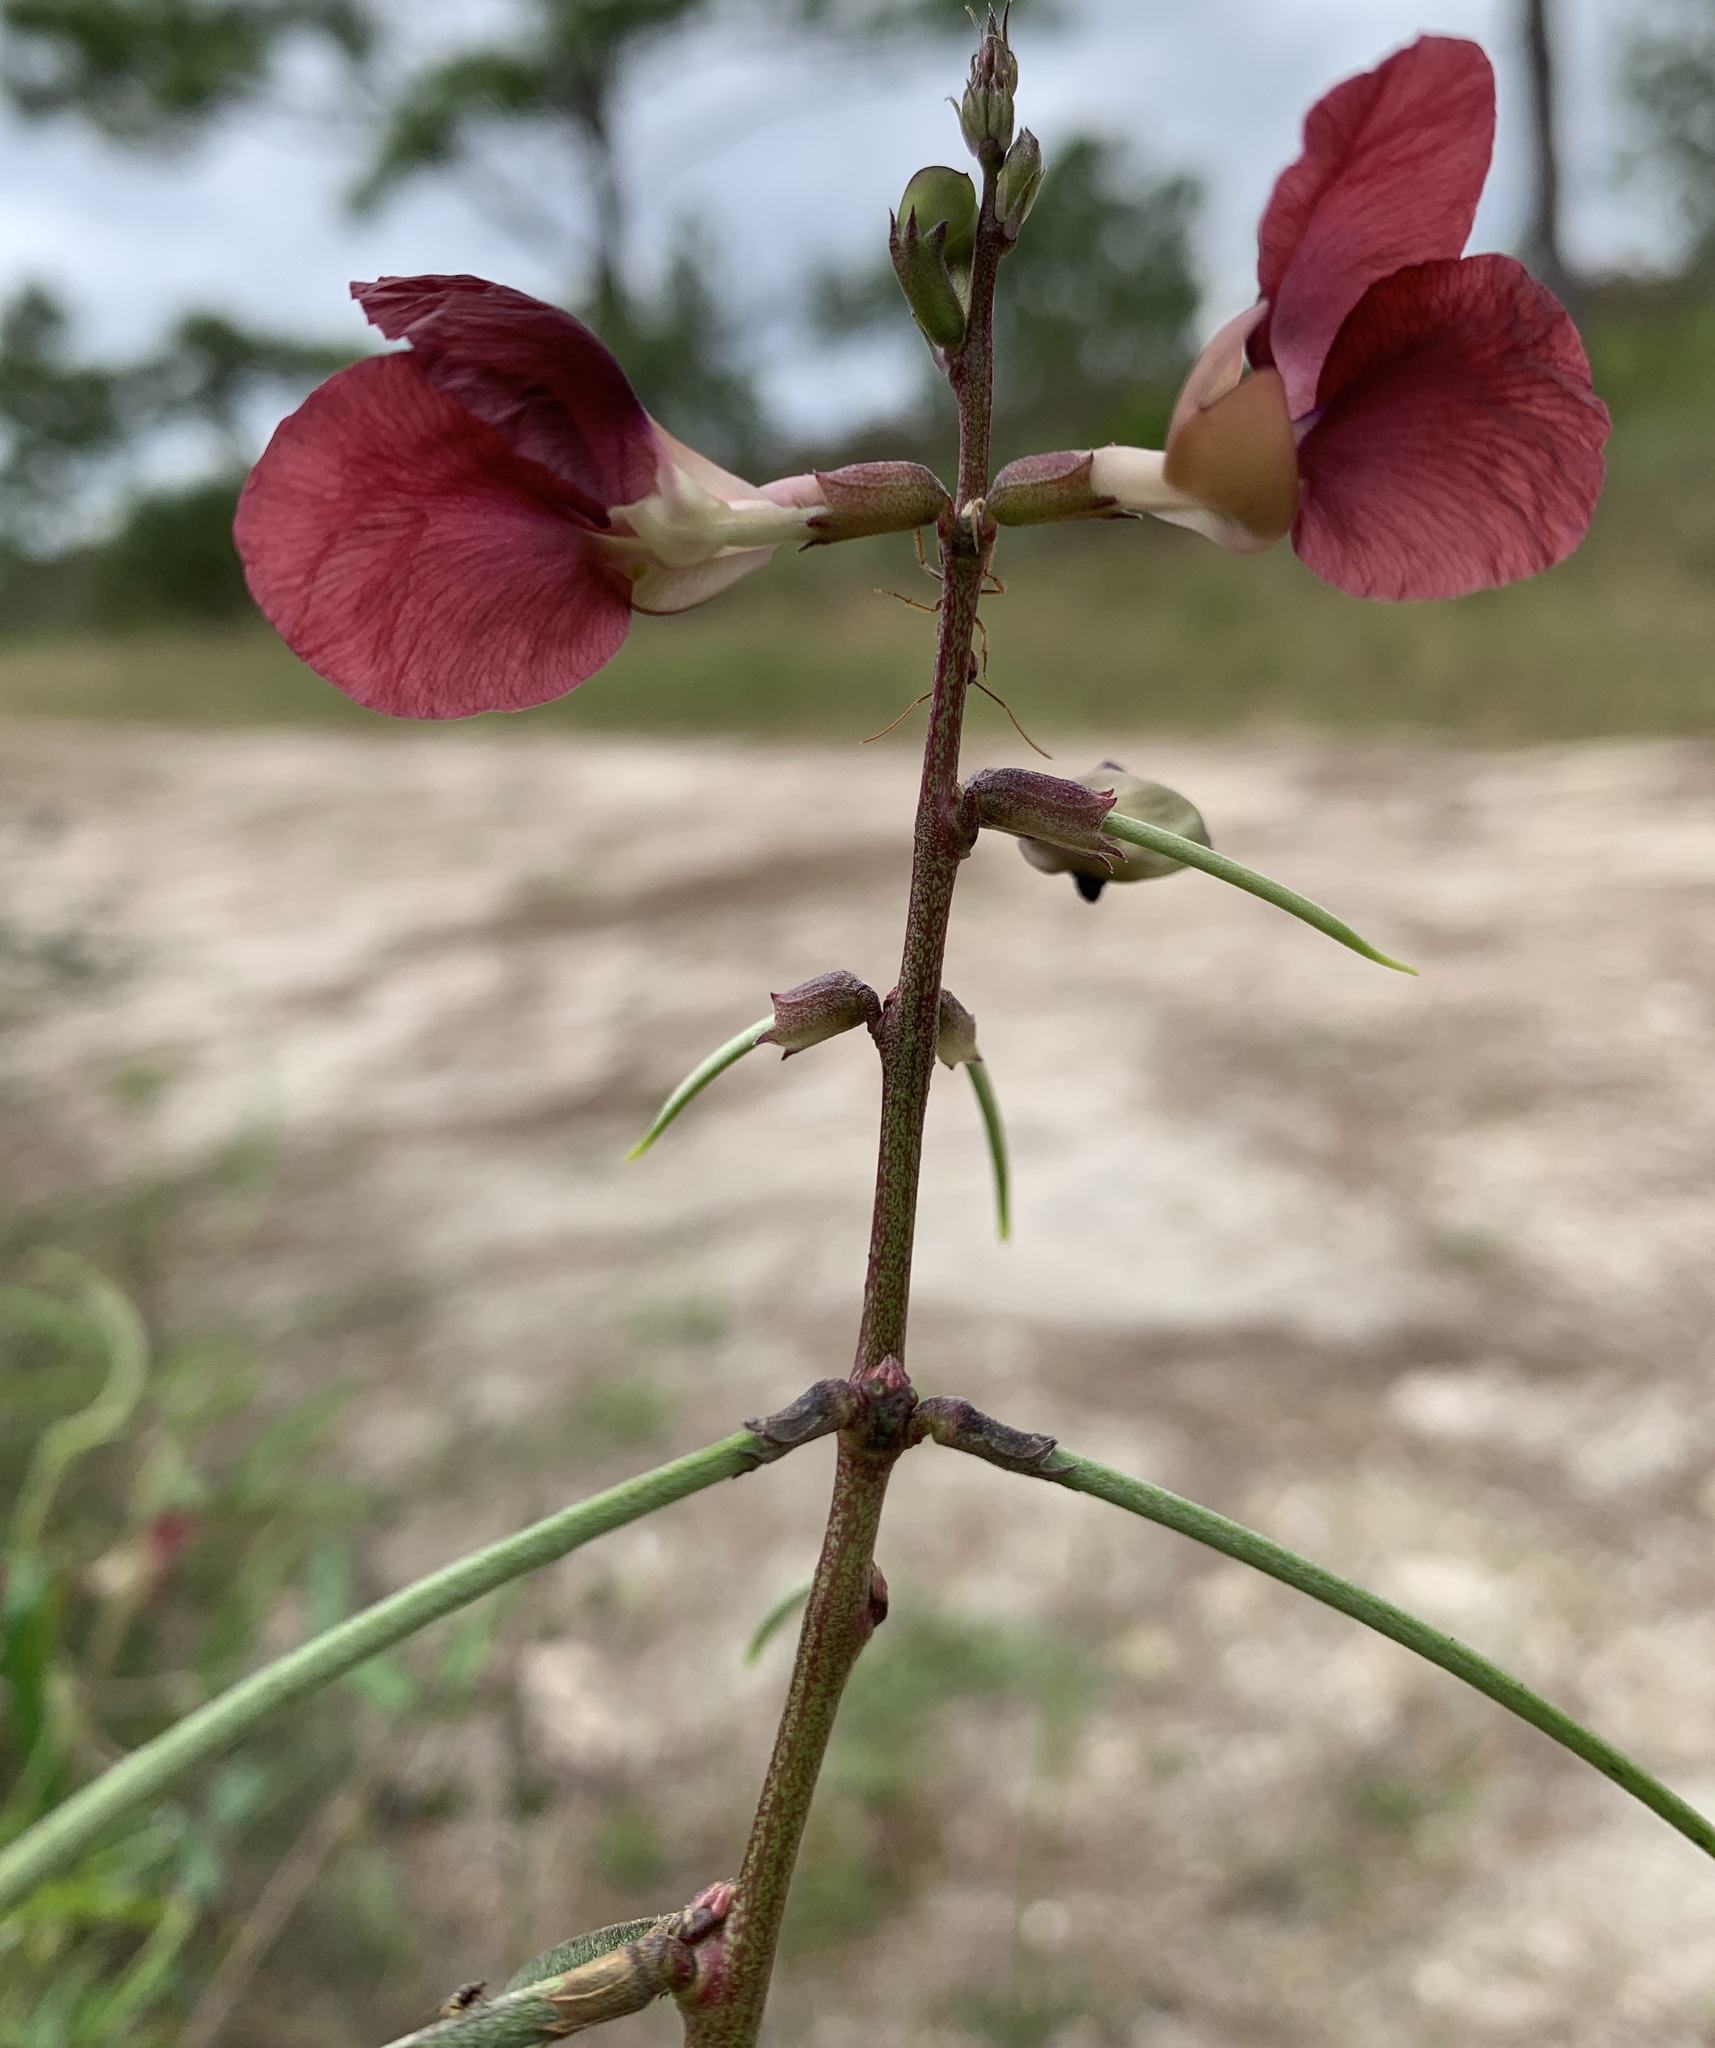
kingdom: Plantae
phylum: Tracheophyta
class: Magnoliopsida
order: Fabales
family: Fabaceae
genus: Macroptilium
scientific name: Macroptilium lathyroides
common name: Wild bushbean
